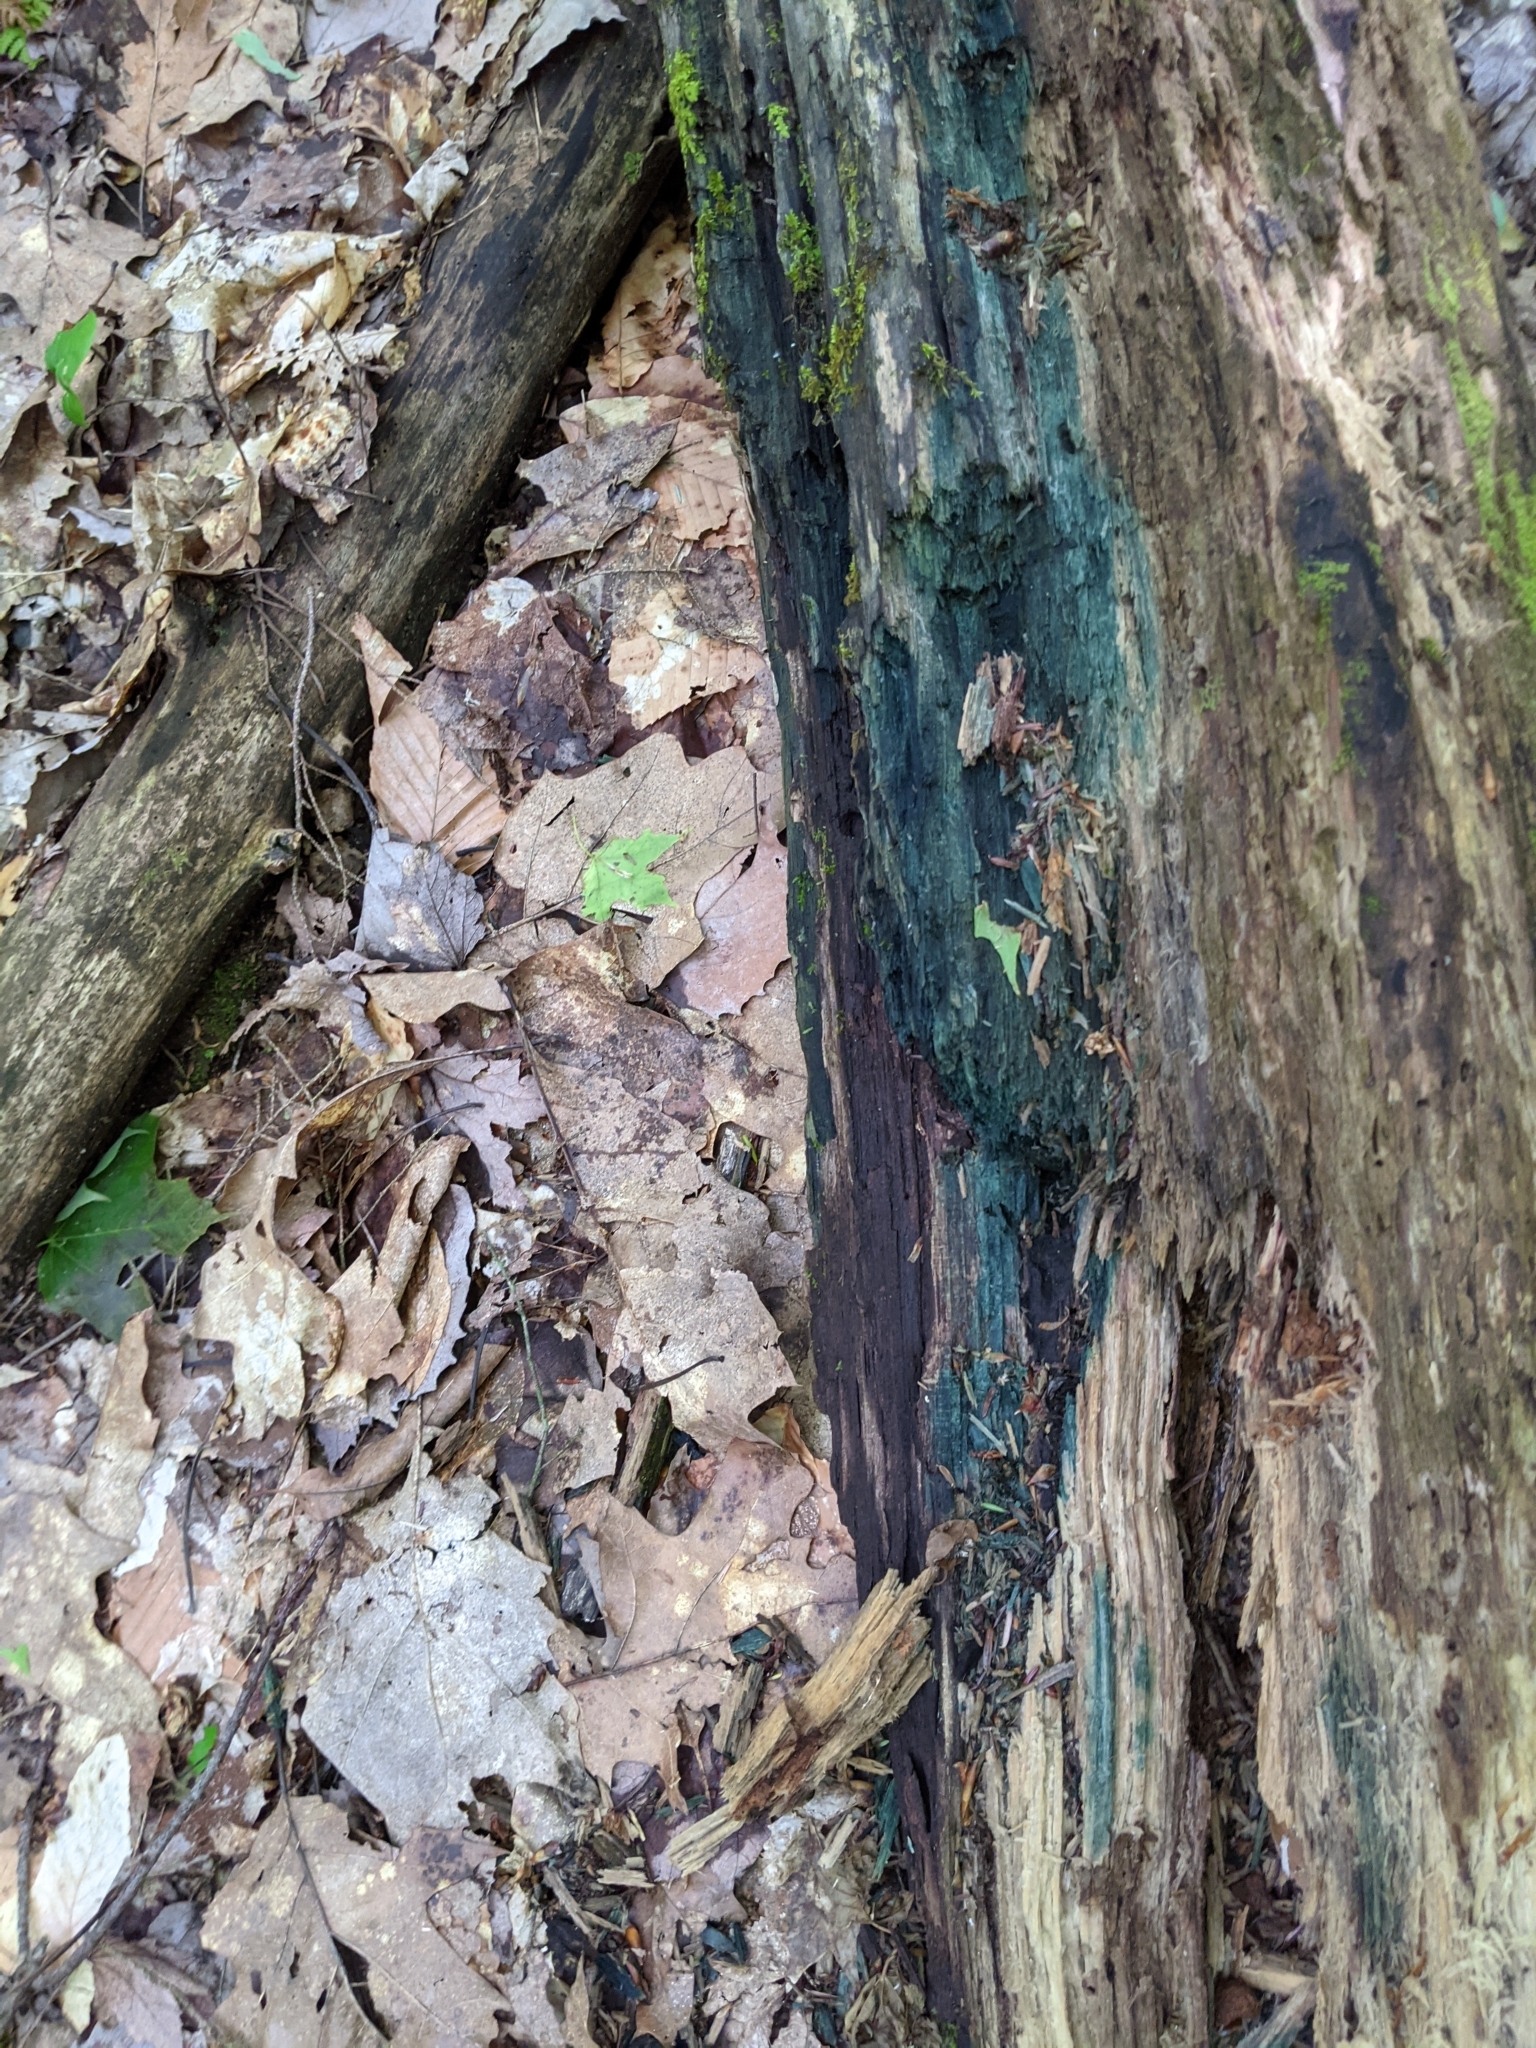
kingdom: Fungi
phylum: Ascomycota
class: Leotiomycetes
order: Helotiales
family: Chlorociboriaceae
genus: Chlorociboria
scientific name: Chlorociboria
